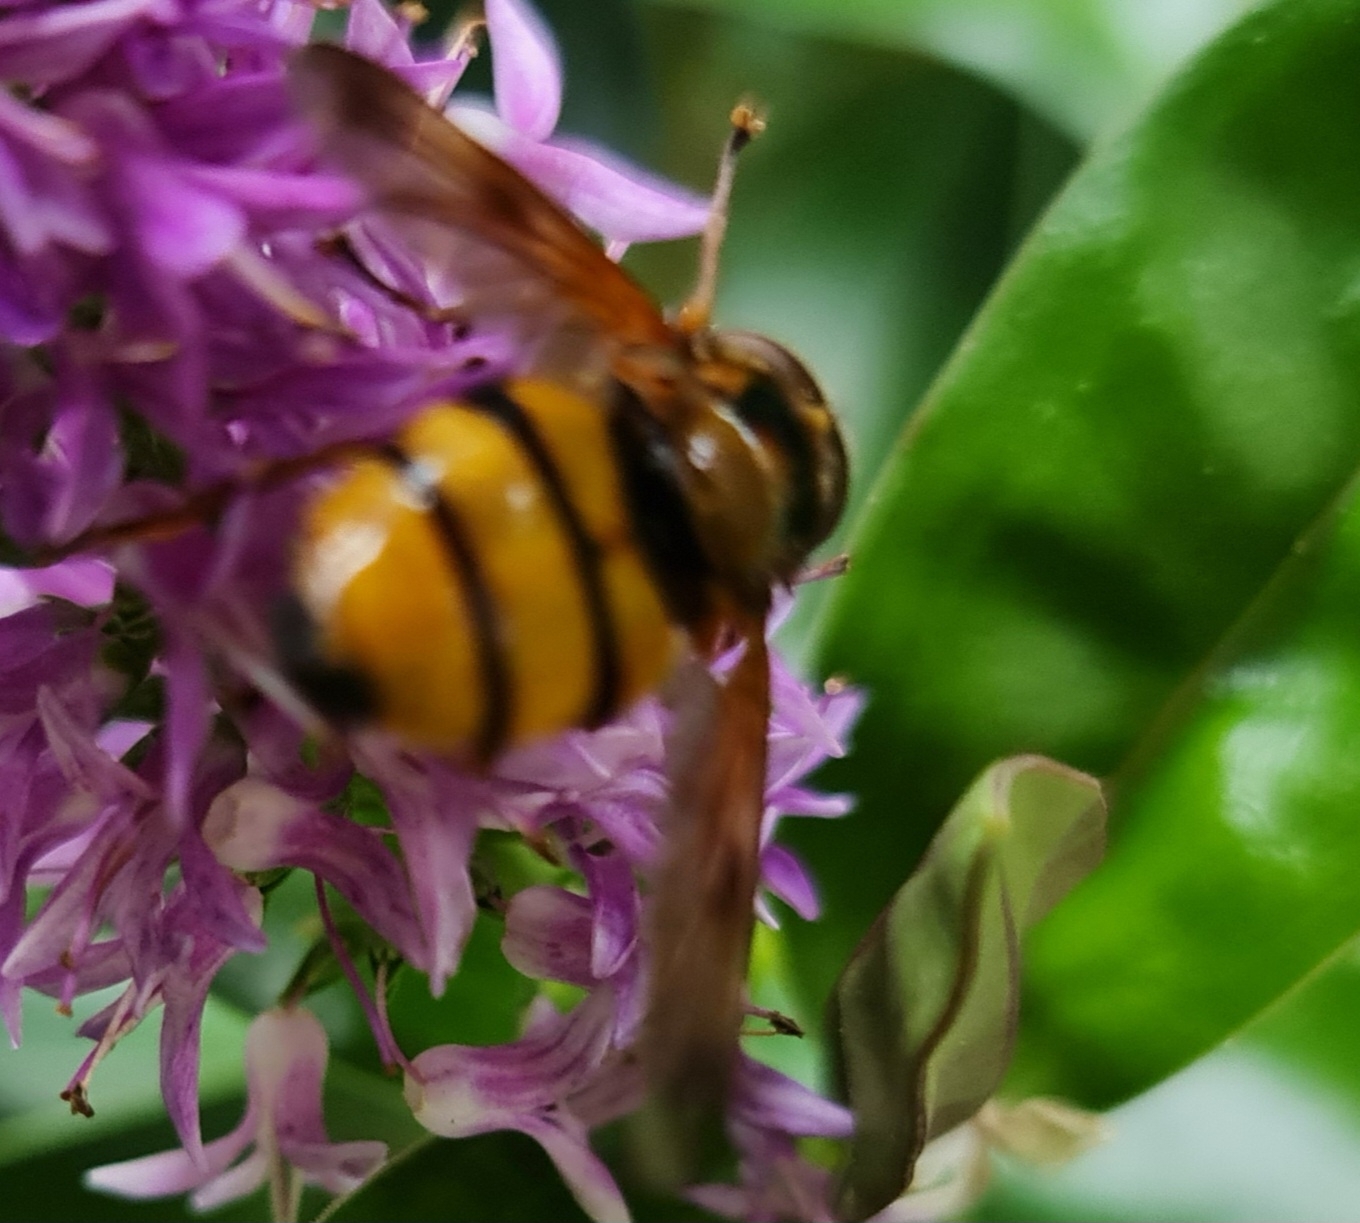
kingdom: Animalia
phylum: Arthropoda
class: Insecta
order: Diptera
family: Syrphidae
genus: Volucella
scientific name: Volucella inanis
